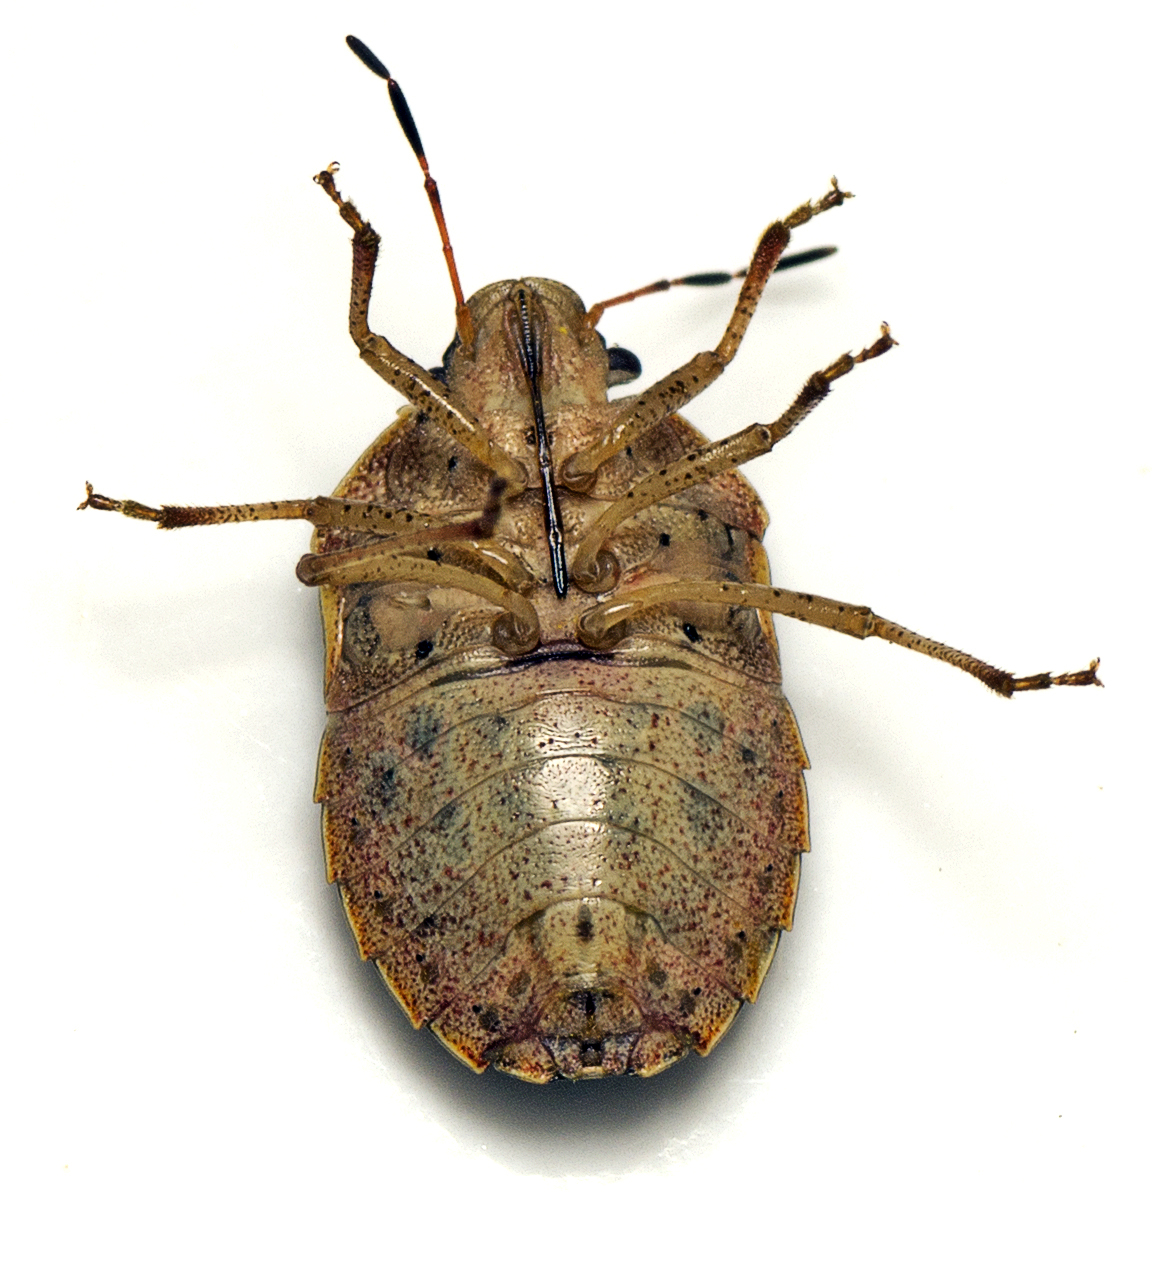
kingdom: Animalia
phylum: Arthropoda
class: Insecta
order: Hemiptera
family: Pentatomidae
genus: Dictyotus
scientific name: Dictyotus
